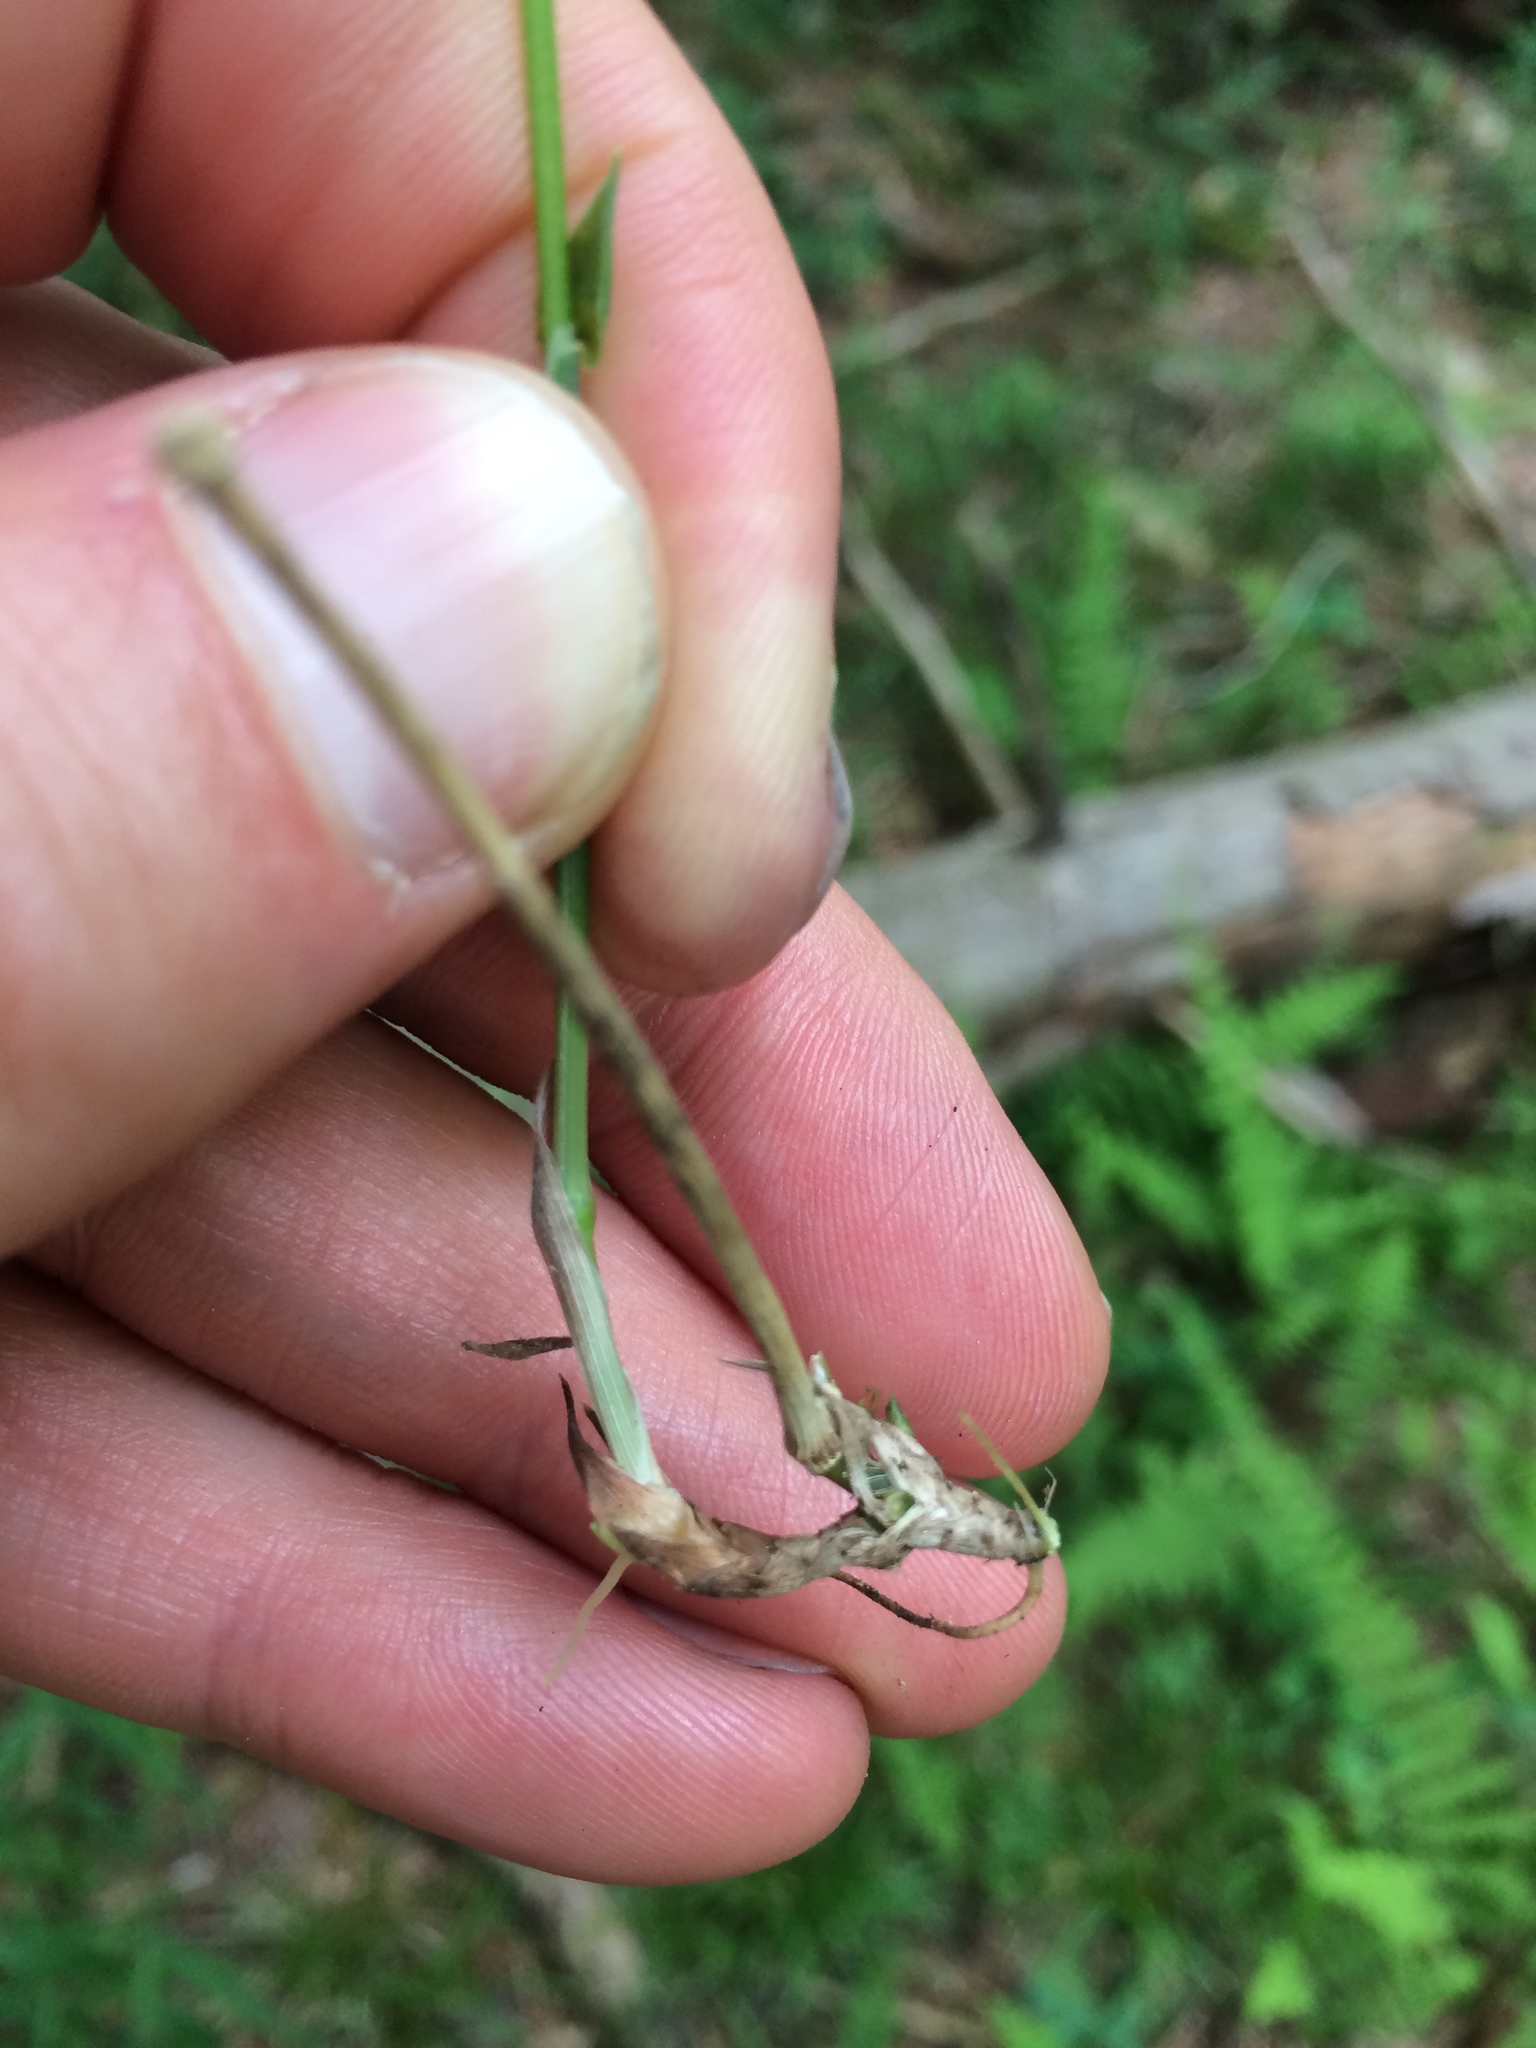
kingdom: Plantae
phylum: Tracheophyta
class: Liliopsida
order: Poales
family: Poaceae
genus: Brachyelytrum
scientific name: Brachyelytrum aristosum
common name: Northern shorthusk
